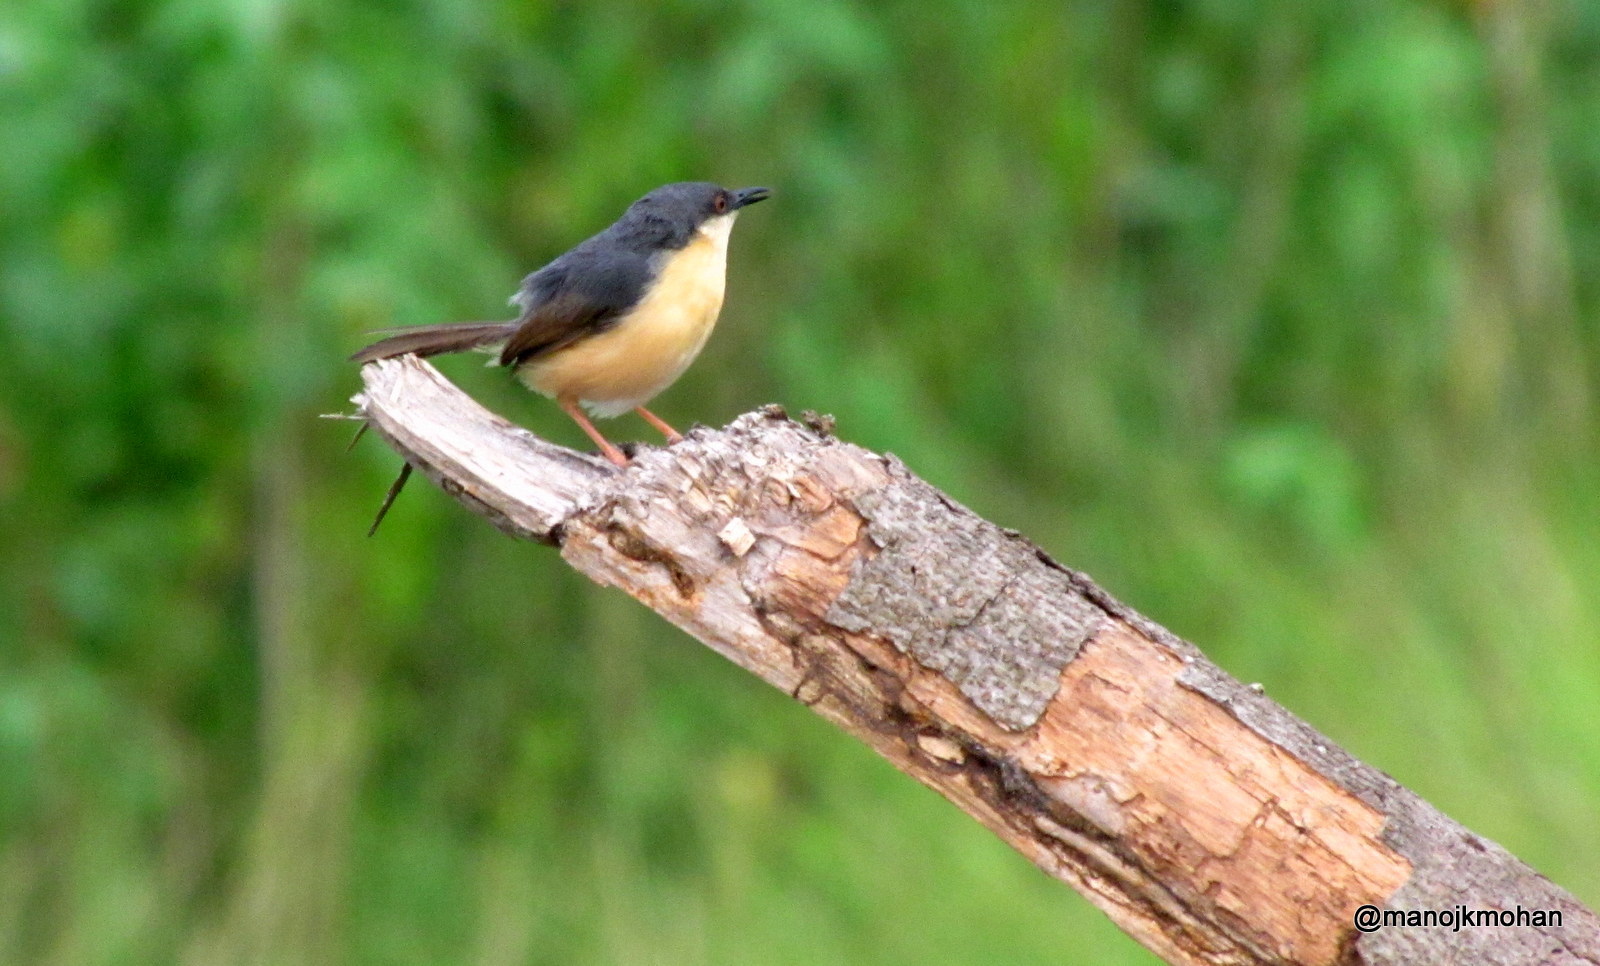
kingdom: Animalia
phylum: Chordata
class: Aves
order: Passeriformes
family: Cisticolidae
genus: Prinia
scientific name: Prinia socialis
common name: Ashy prinia
